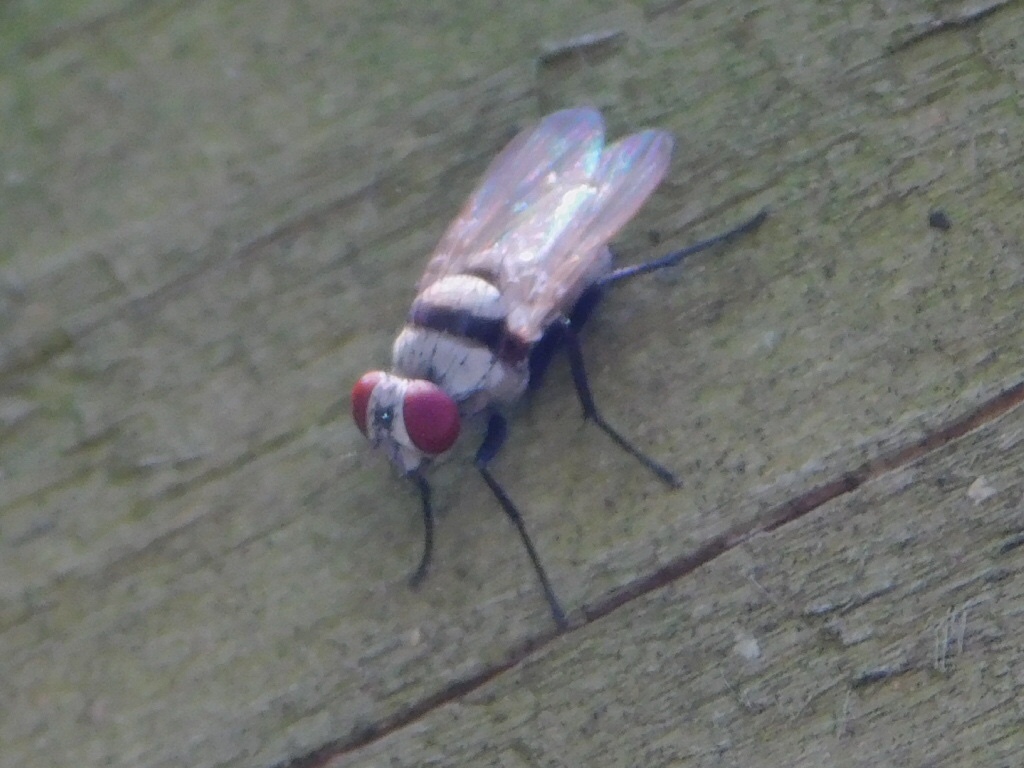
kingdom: Animalia
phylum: Arthropoda
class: Insecta
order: Diptera
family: Anthomyiidae
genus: Anthomyia
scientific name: Anthomyia illocata
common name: Fly
